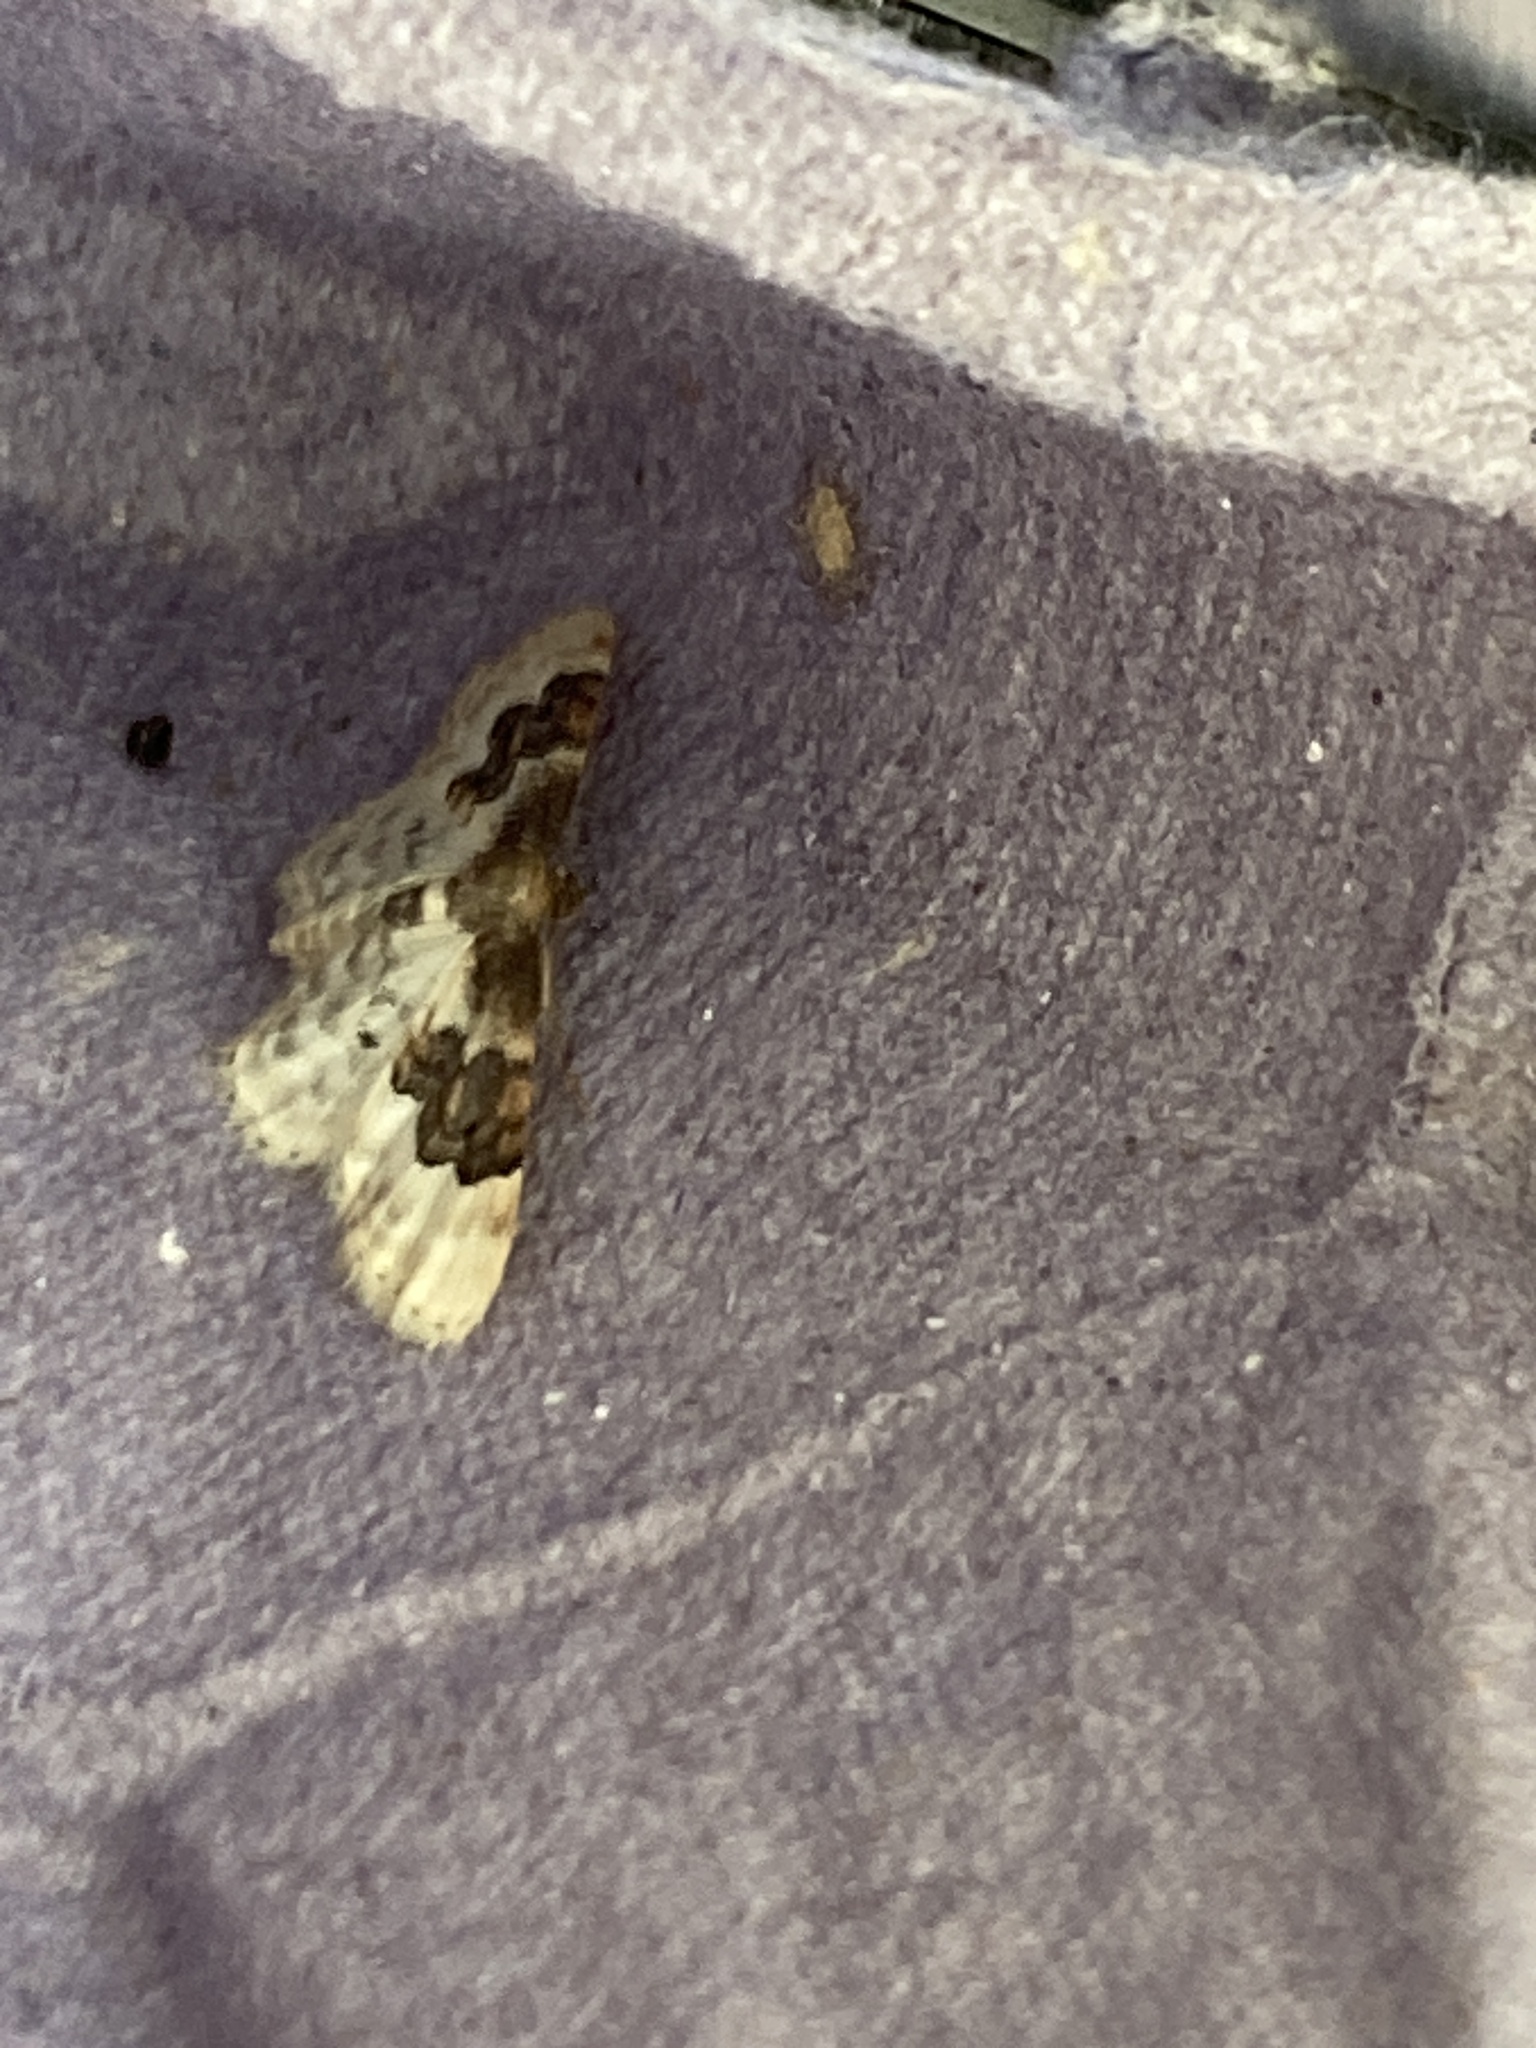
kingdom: Animalia
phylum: Arthropoda
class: Insecta
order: Lepidoptera
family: Geometridae
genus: Idaea
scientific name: Idaea rusticata
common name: Least carpet
